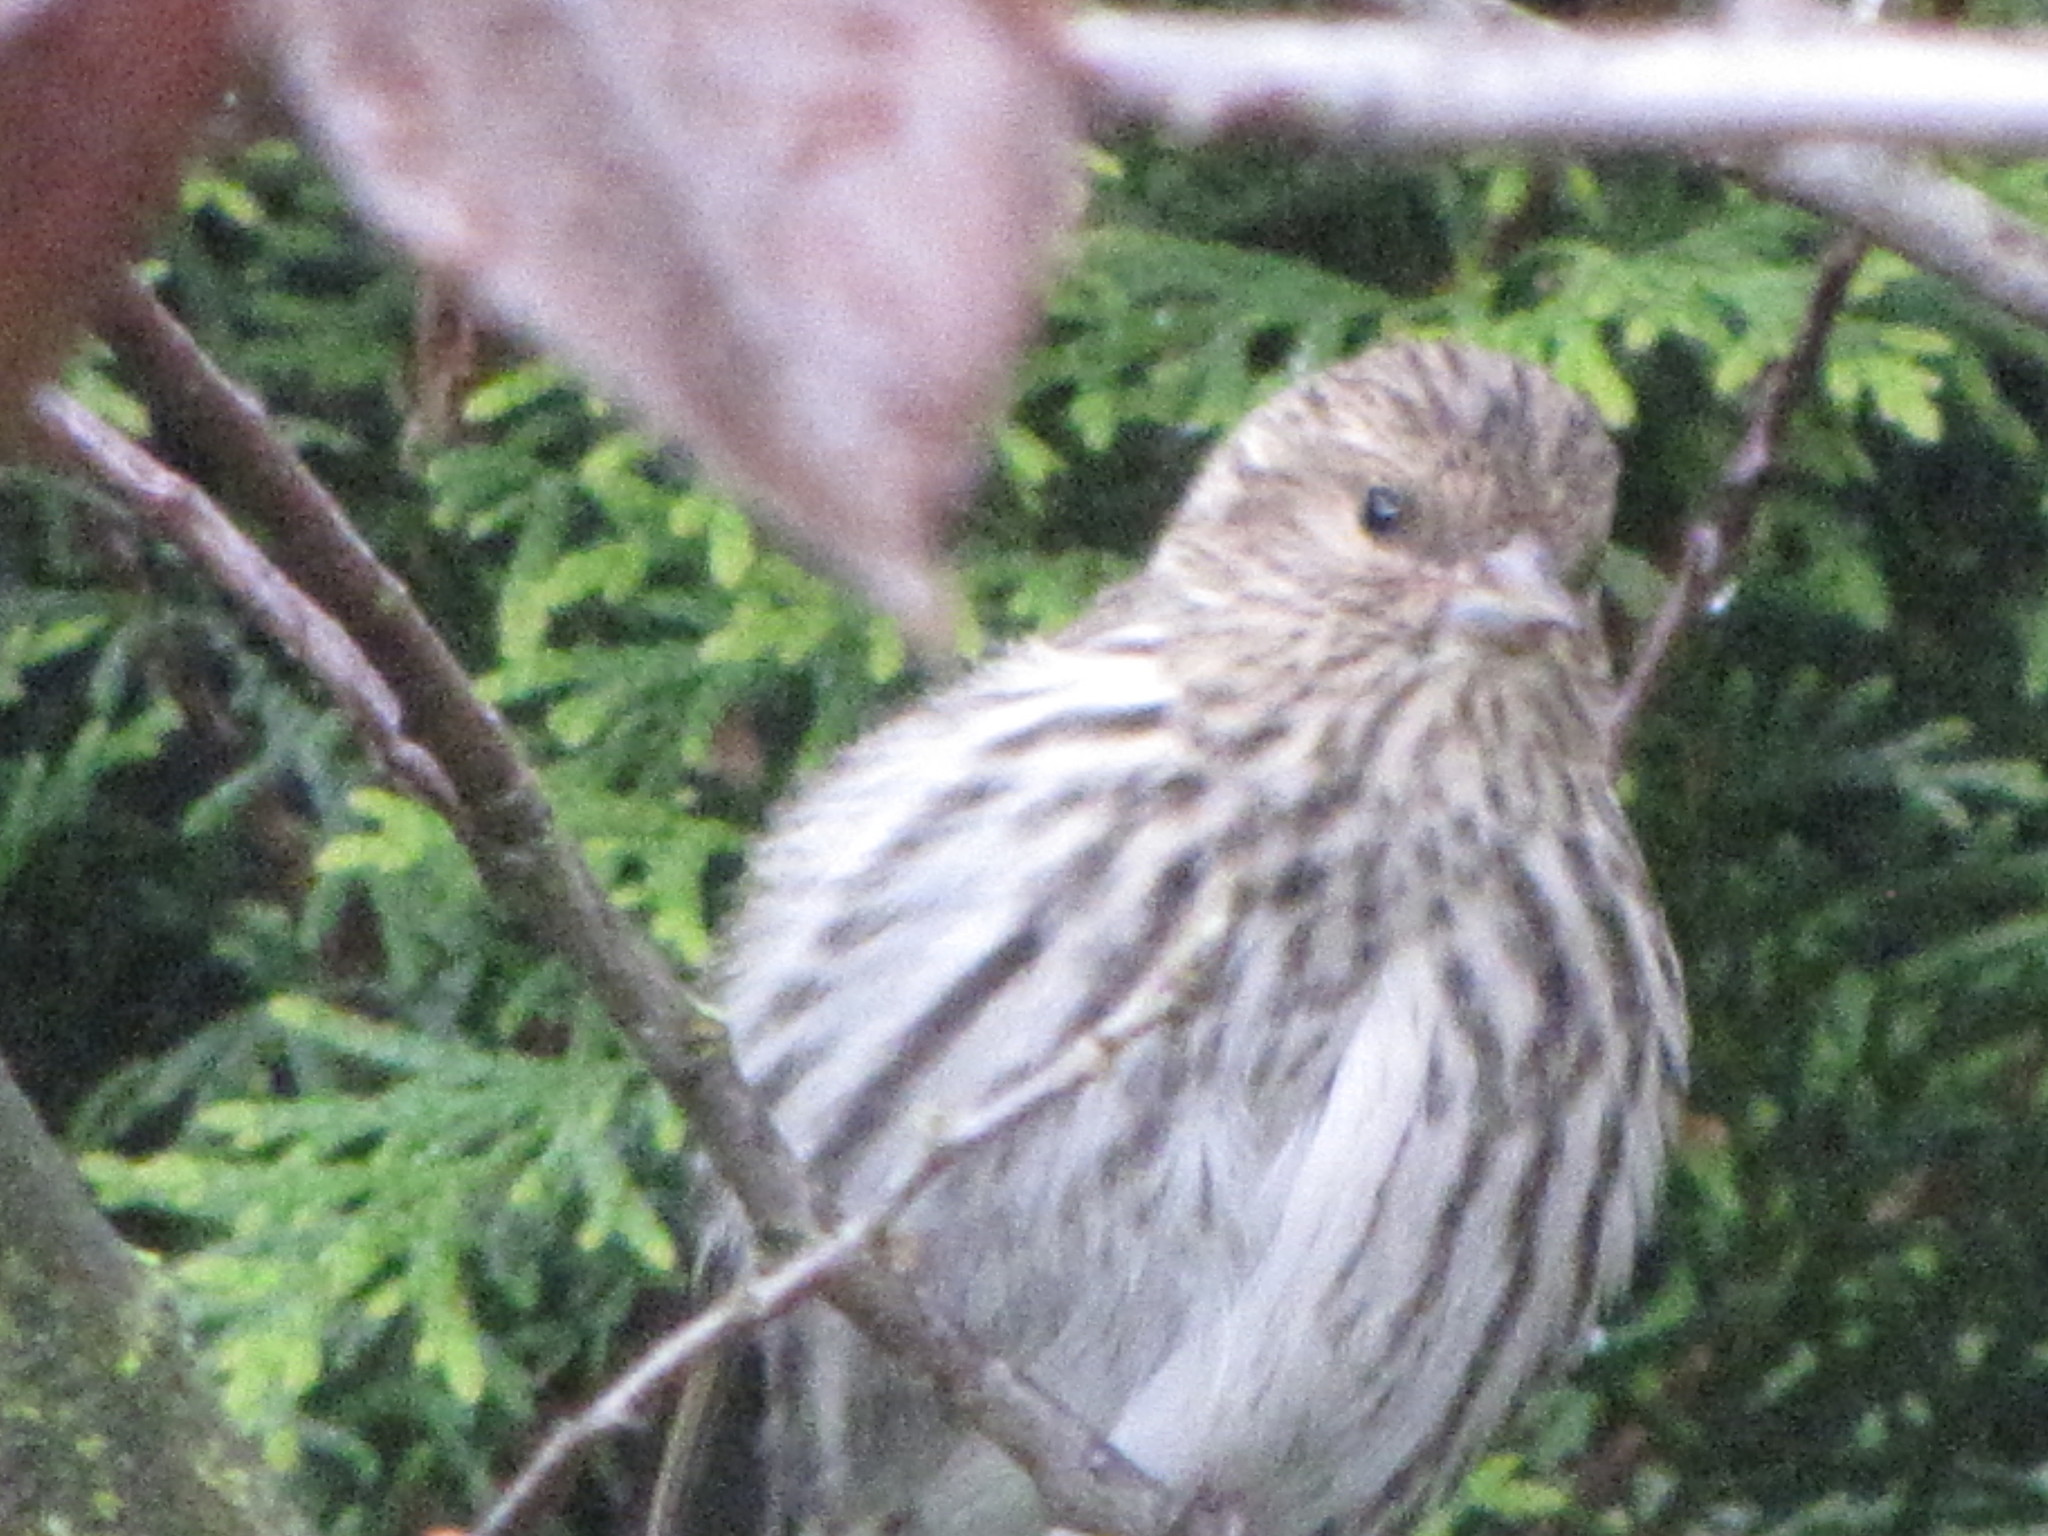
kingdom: Animalia
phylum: Chordata
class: Aves
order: Passeriformes
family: Fringillidae
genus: Spinus
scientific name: Spinus pinus
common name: Pine siskin
